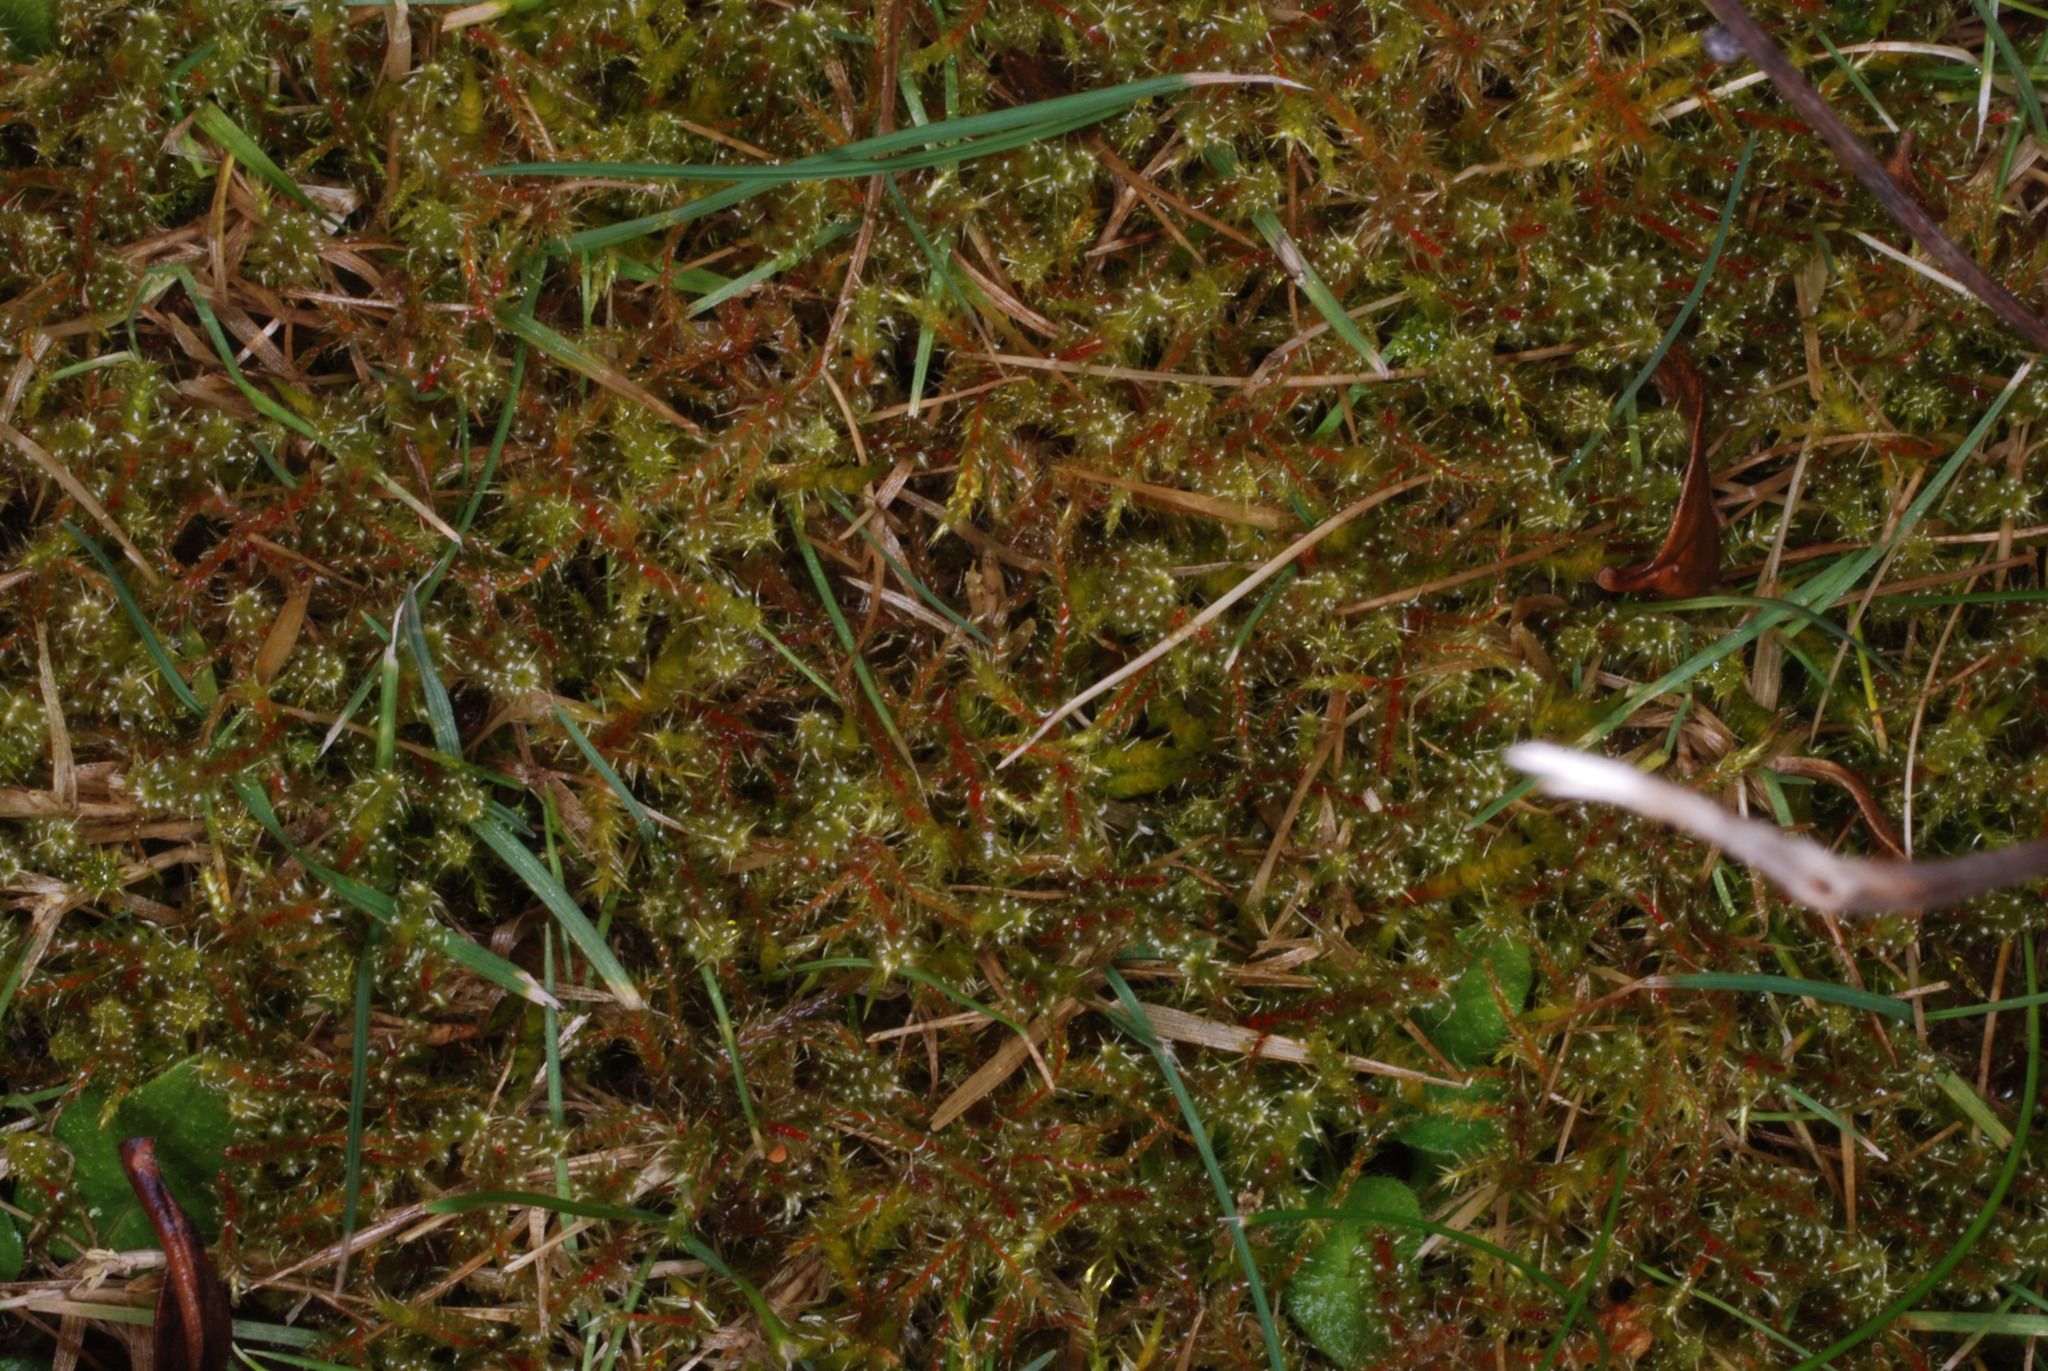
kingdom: Plantae
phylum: Bryophyta
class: Bryopsida
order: Hypnales
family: Hylocomiaceae
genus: Rhytidiadelphus
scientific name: Rhytidiadelphus squarrosus
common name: Springy turf-moss
